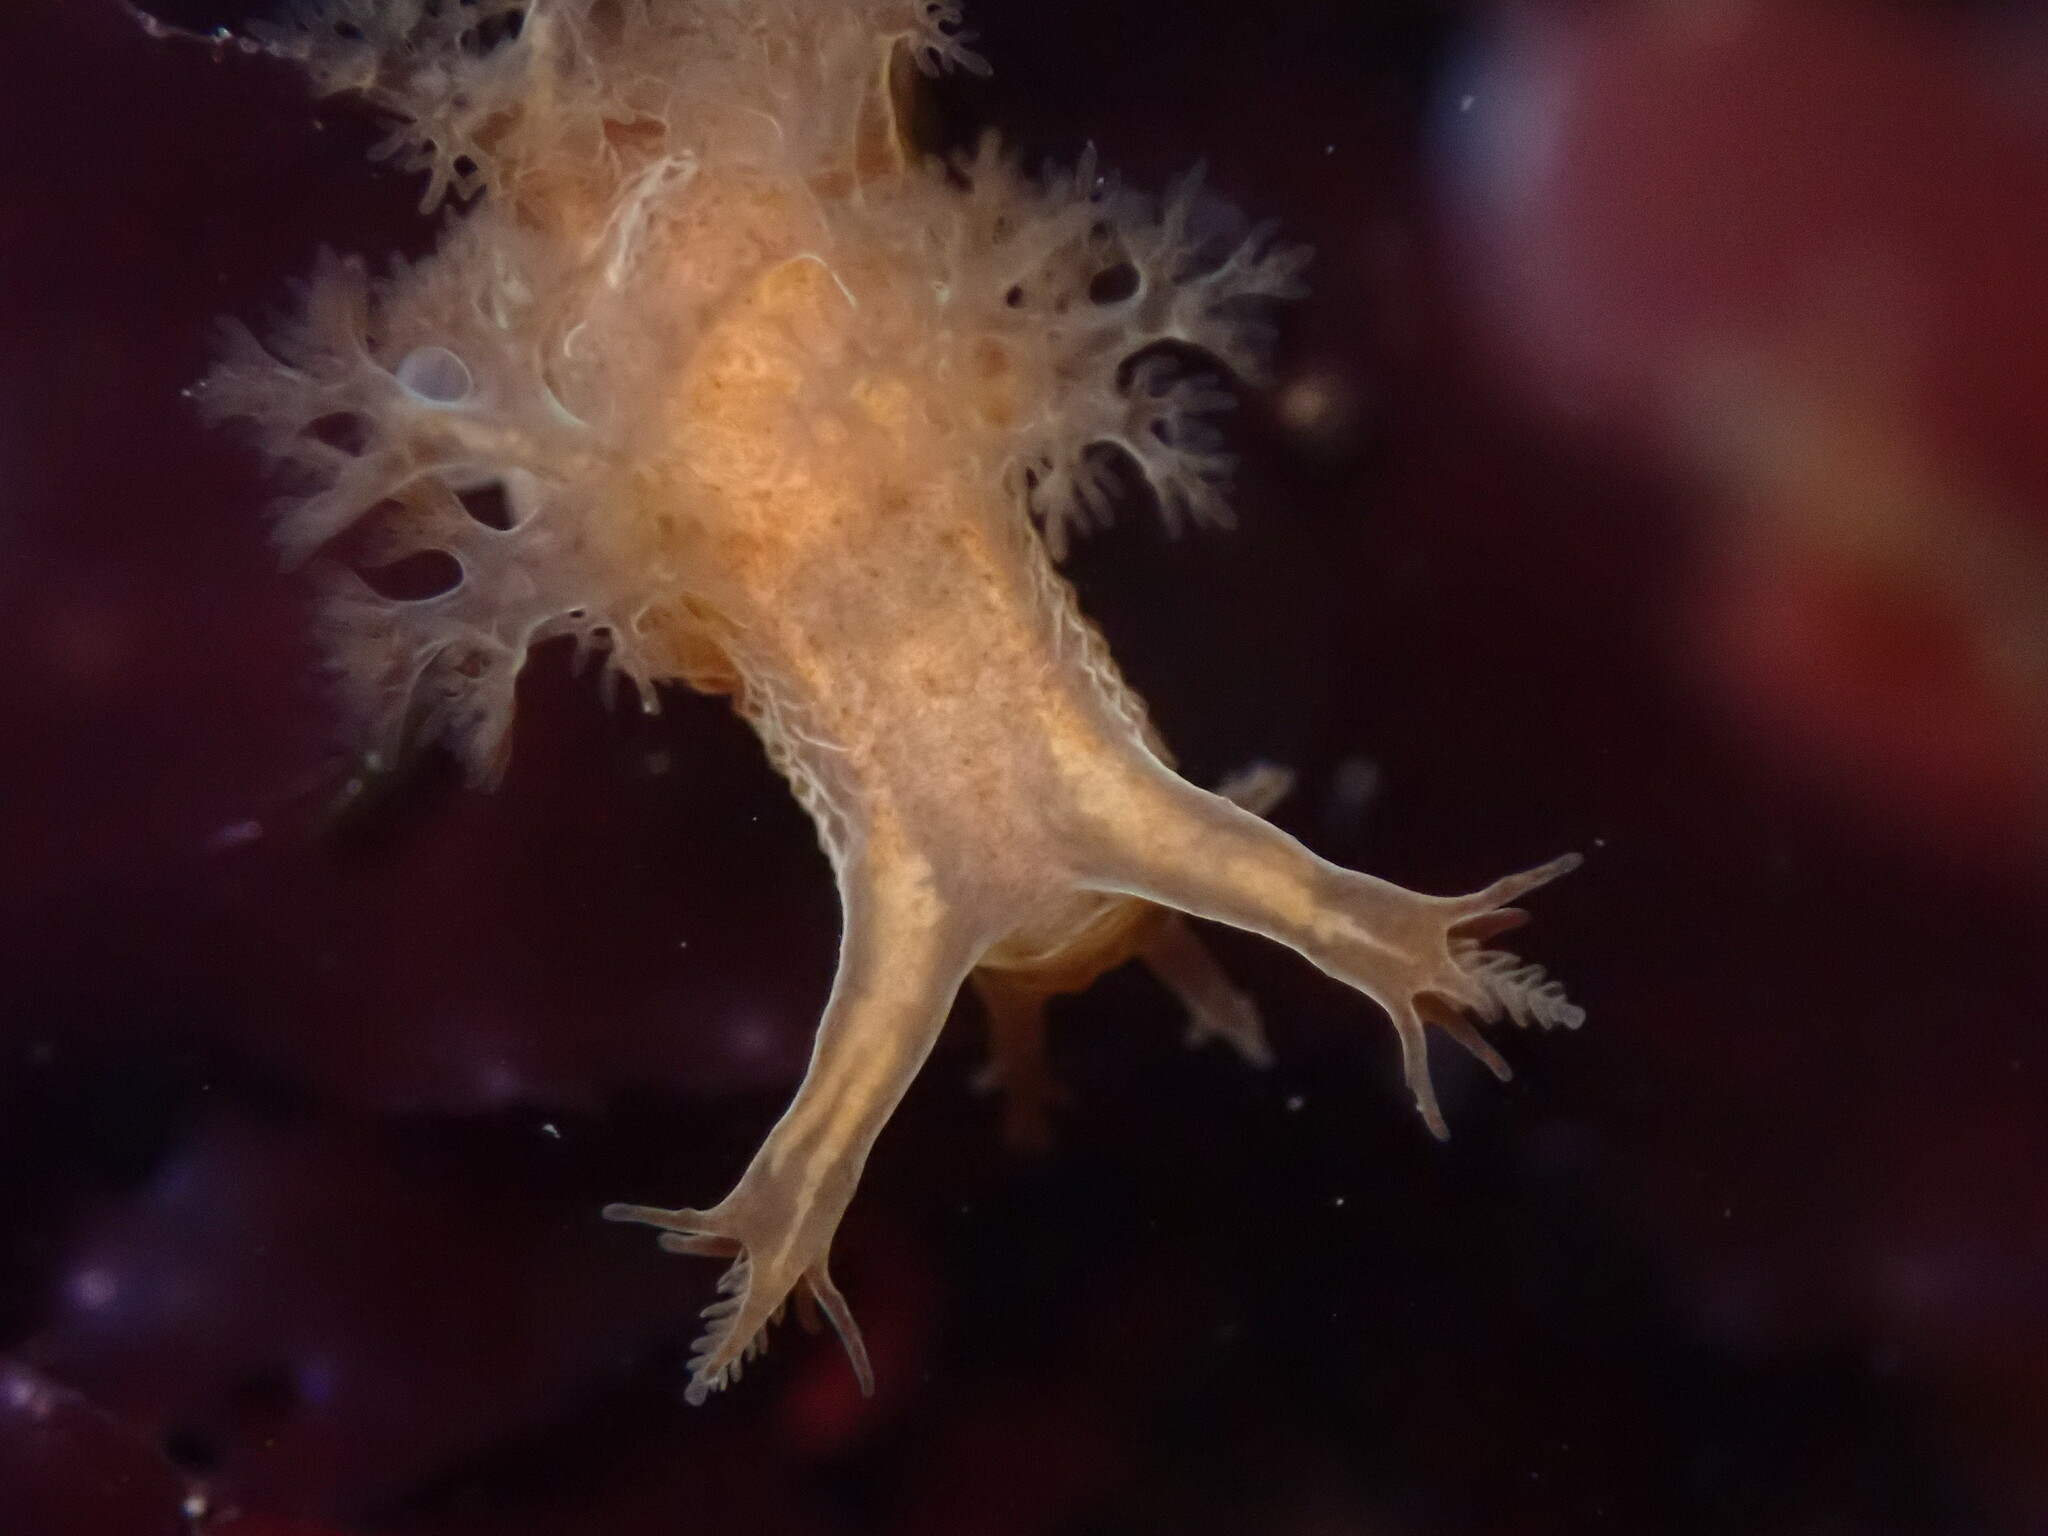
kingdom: Animalia
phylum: Mollusca
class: Gastropoda
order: Nudibranchia
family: Dendronotidae
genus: Dendronotus
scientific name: Dendronotus subramosus
